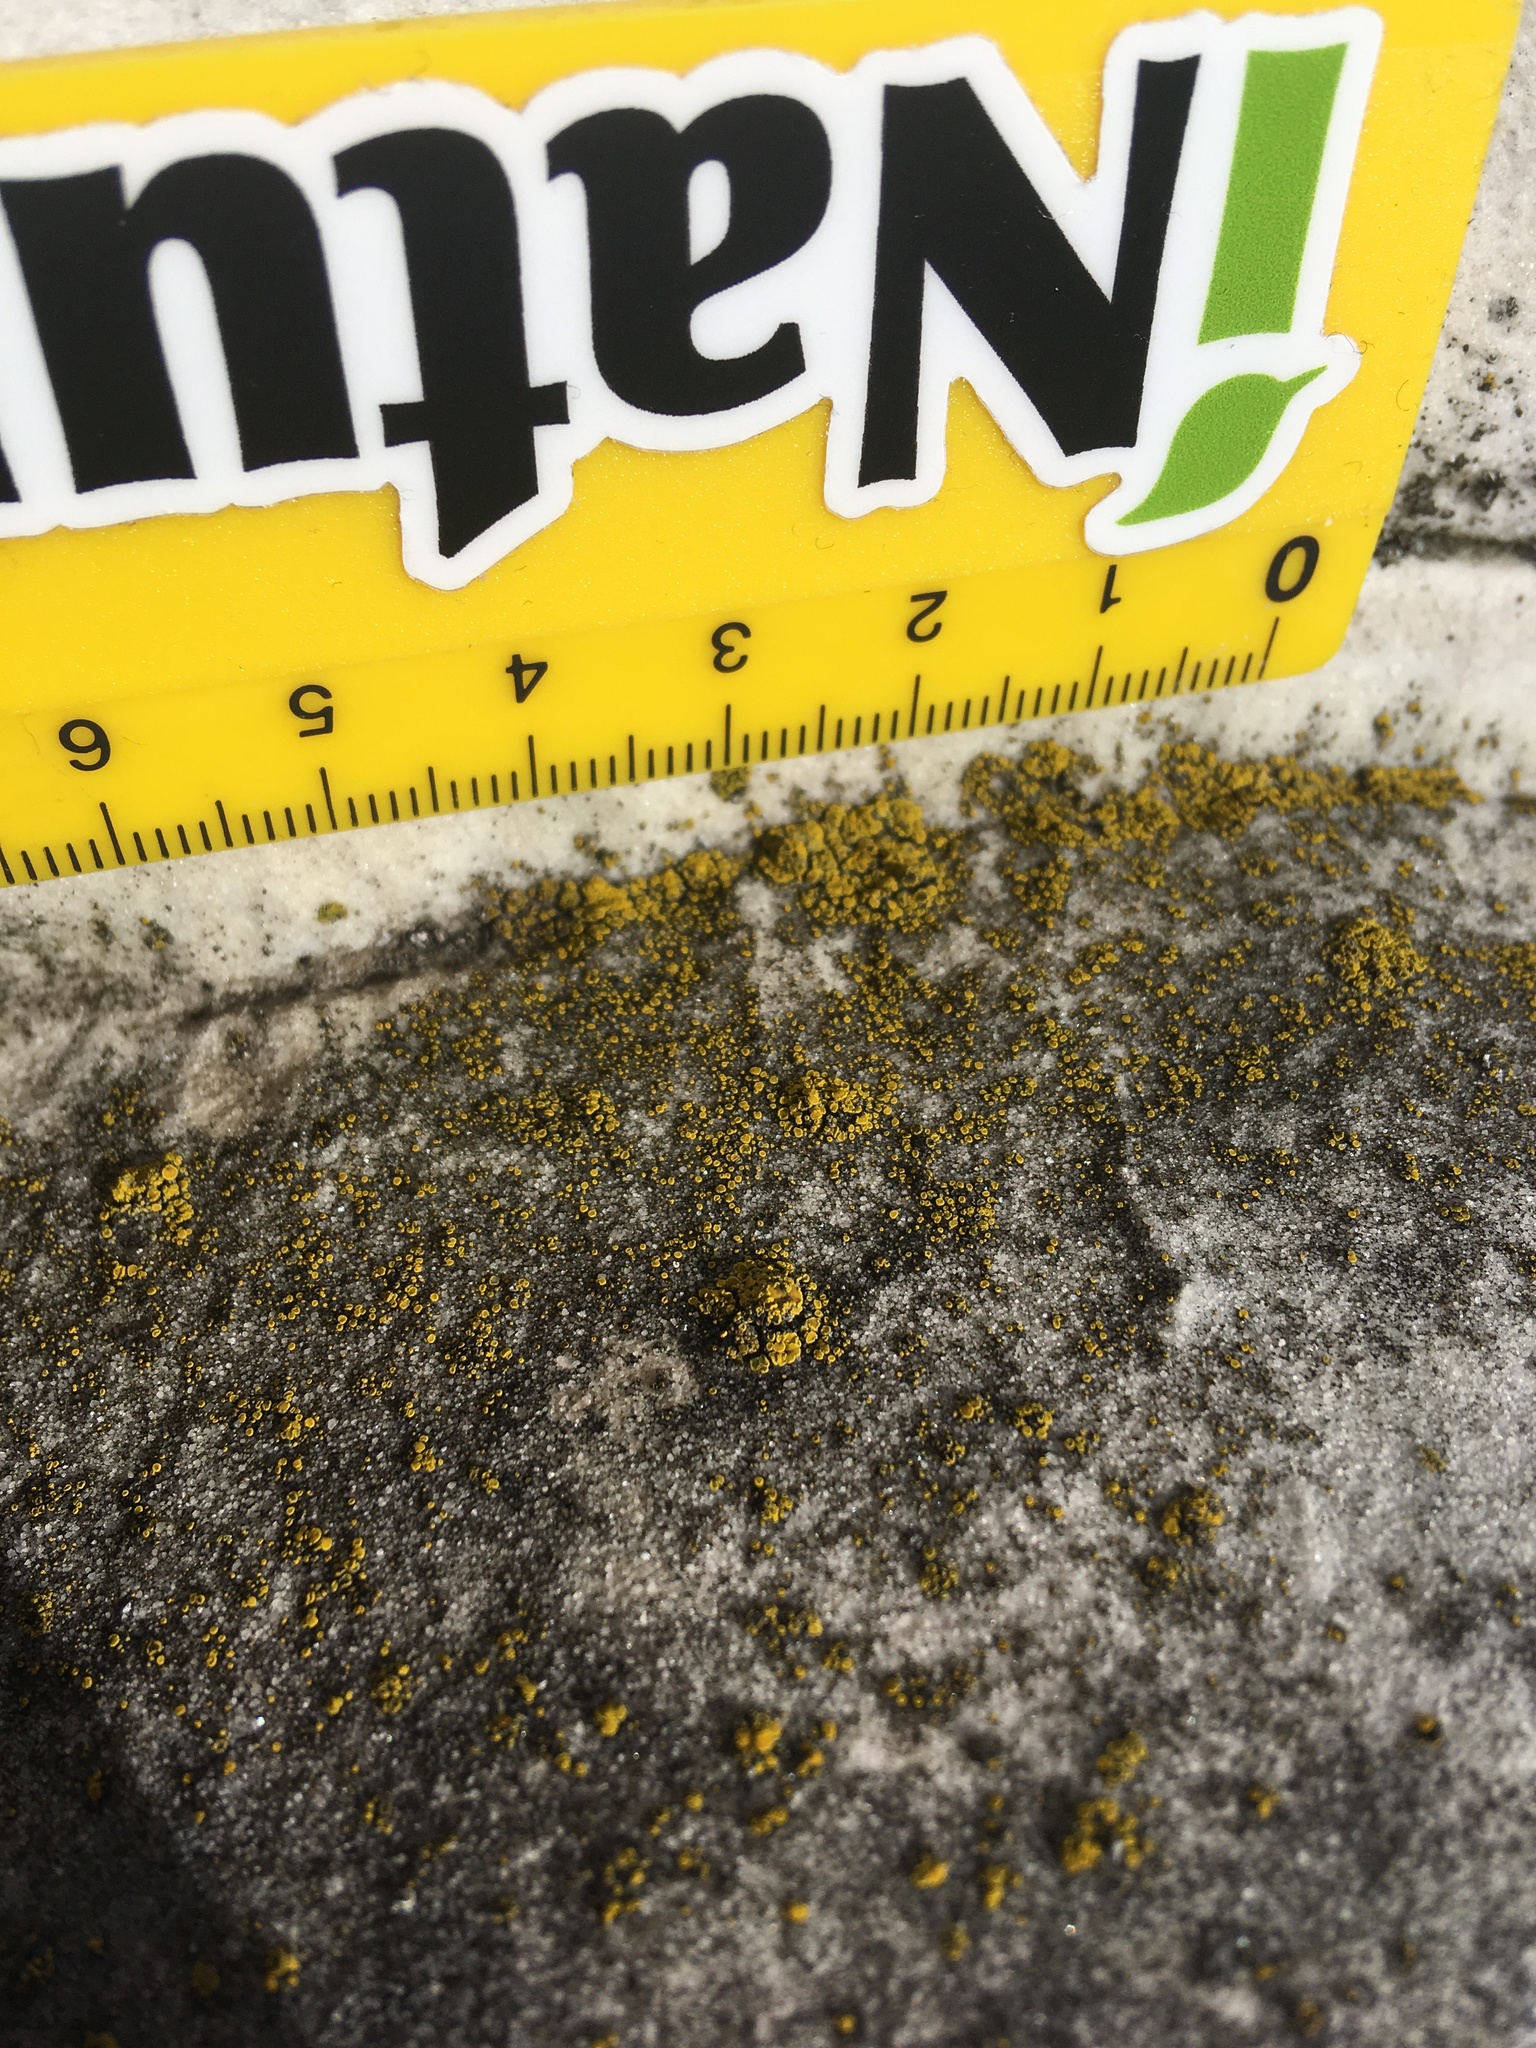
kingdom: Fungi
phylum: Ascomycota
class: Lecanoromycetes
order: Teloschistales
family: Teloschistaceae
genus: Xanthocarpia
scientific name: Xanthocarpia feracissima
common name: Sidewalk firedot
